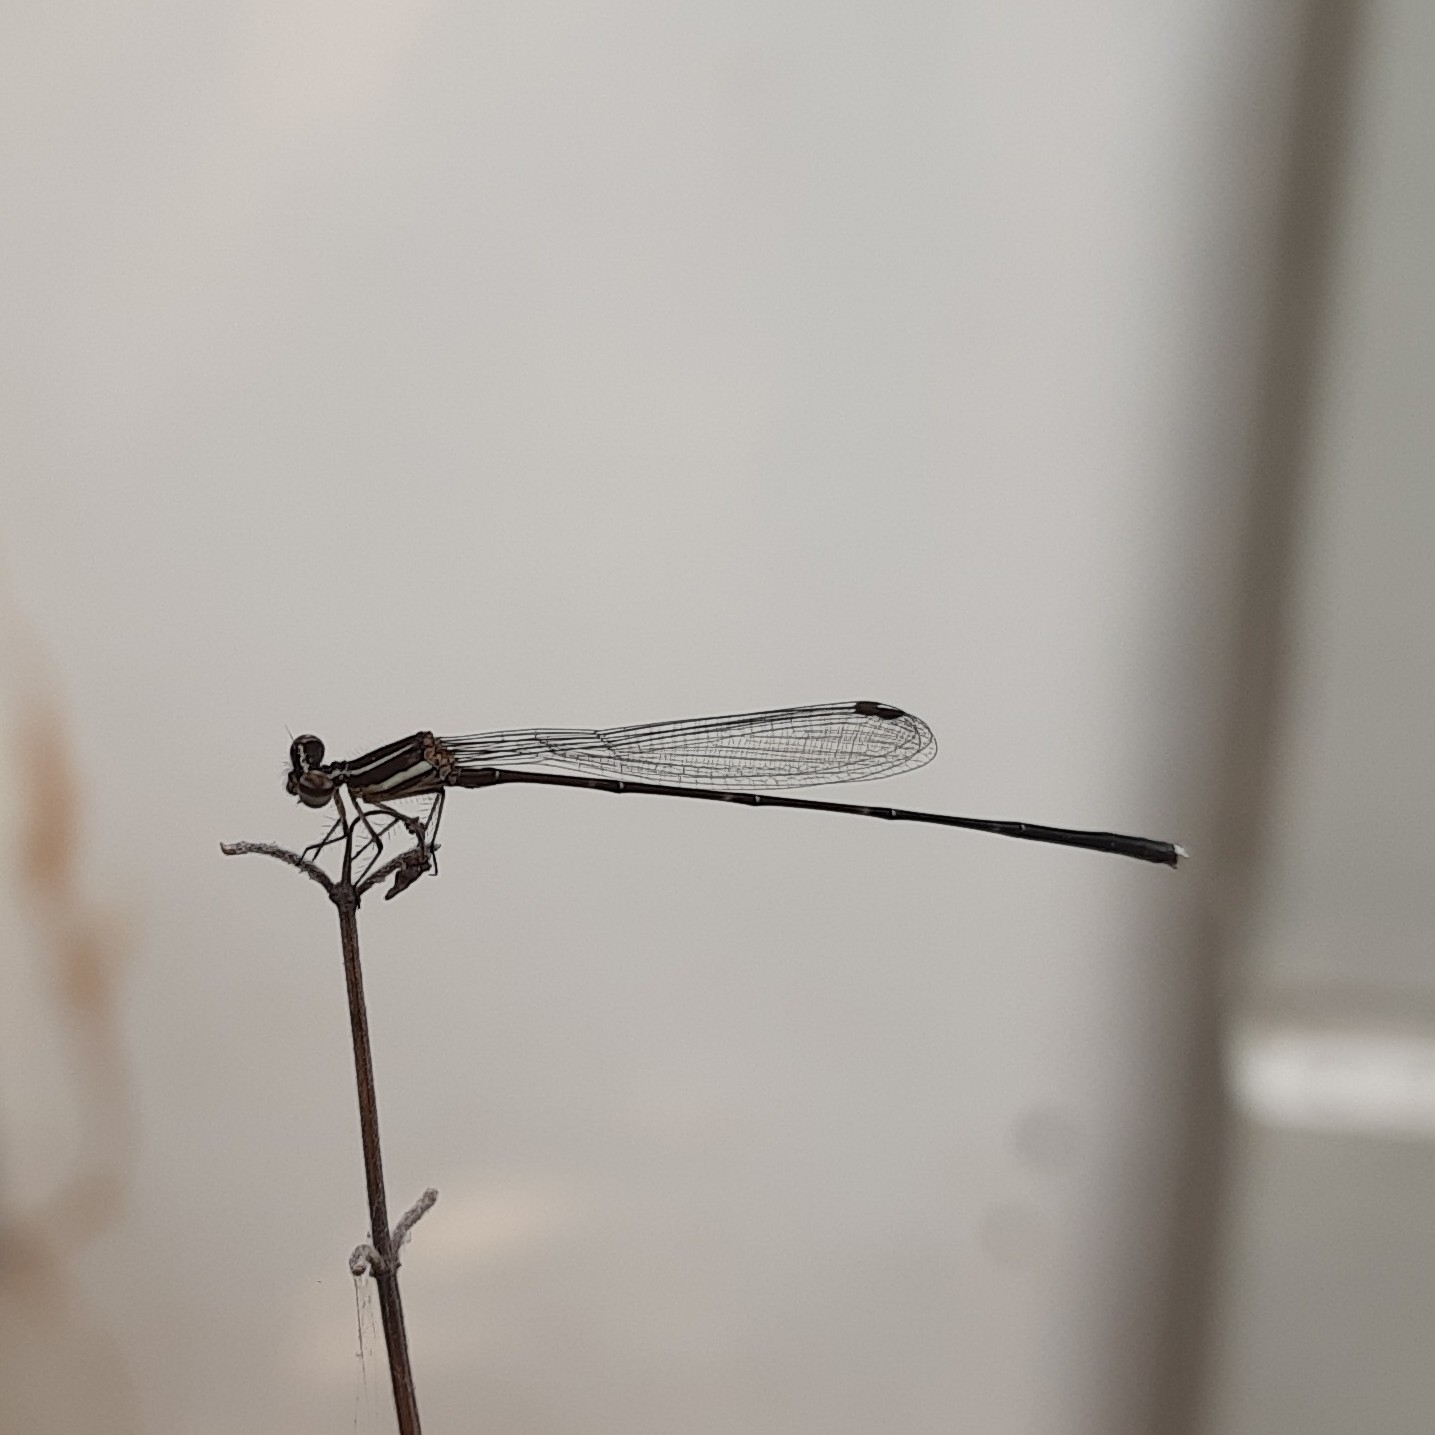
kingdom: Animalia
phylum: Arthropoda
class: Insecta
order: Odonata
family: Platycnemididae
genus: Prodasineura
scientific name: Prodasineura verticalis
